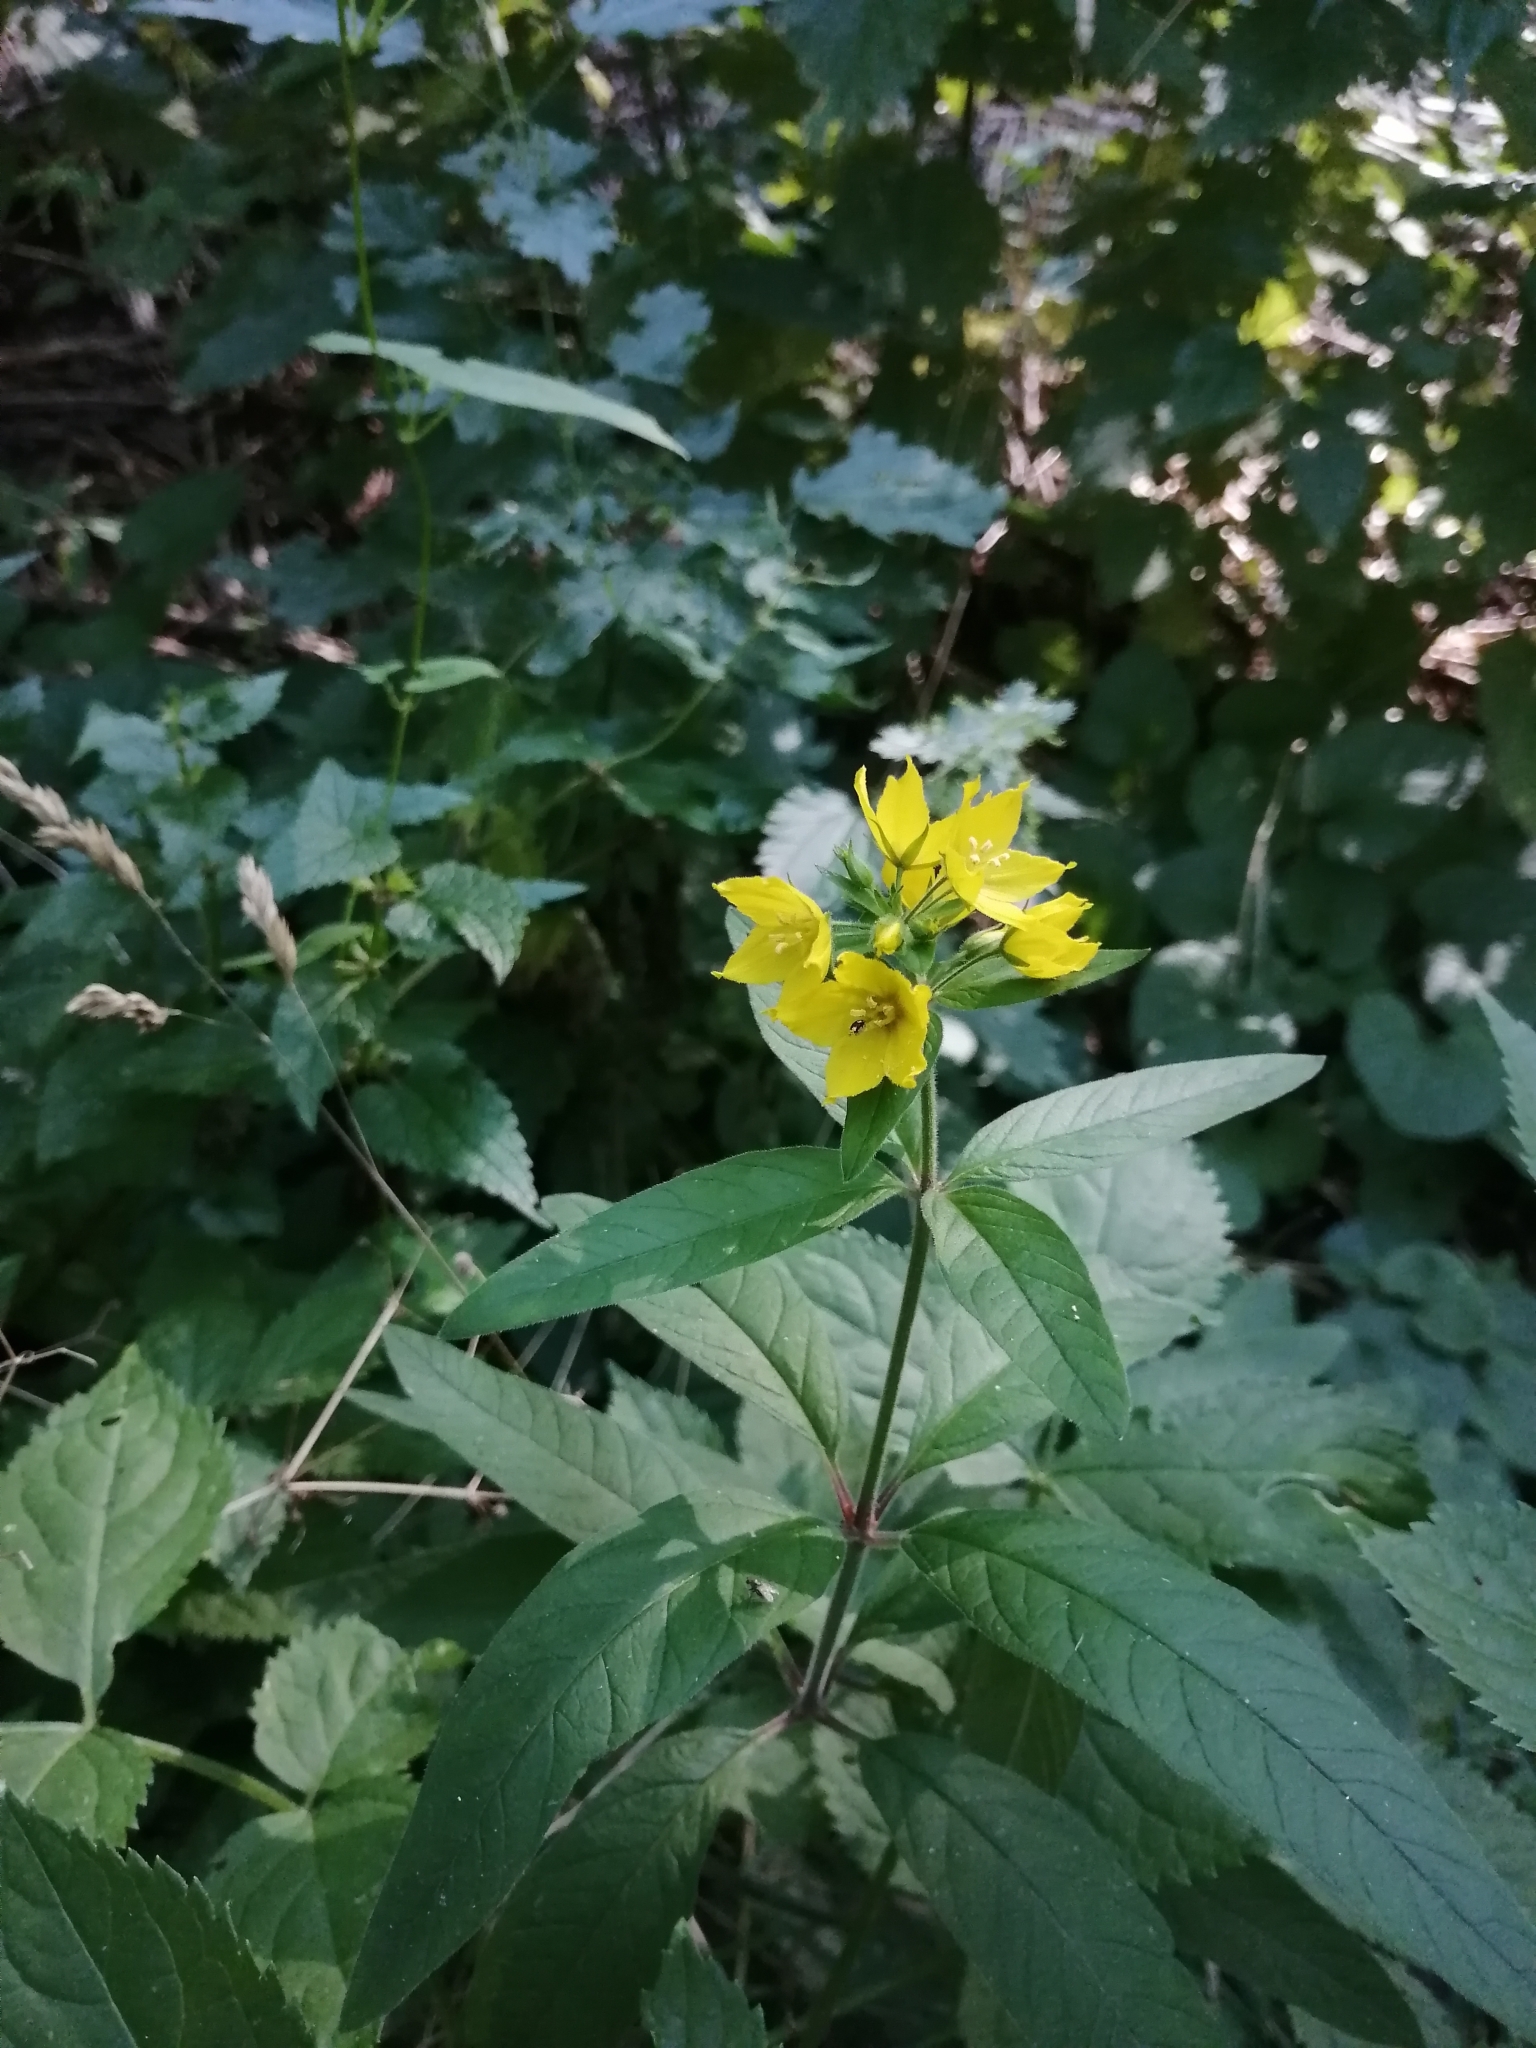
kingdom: Plantae
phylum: Tracheophyta
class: Magnoliopsida
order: Ericales
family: Primulaceae
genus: Lysimachia
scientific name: Lysimachia verticillaris
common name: Yellow loosestrife
